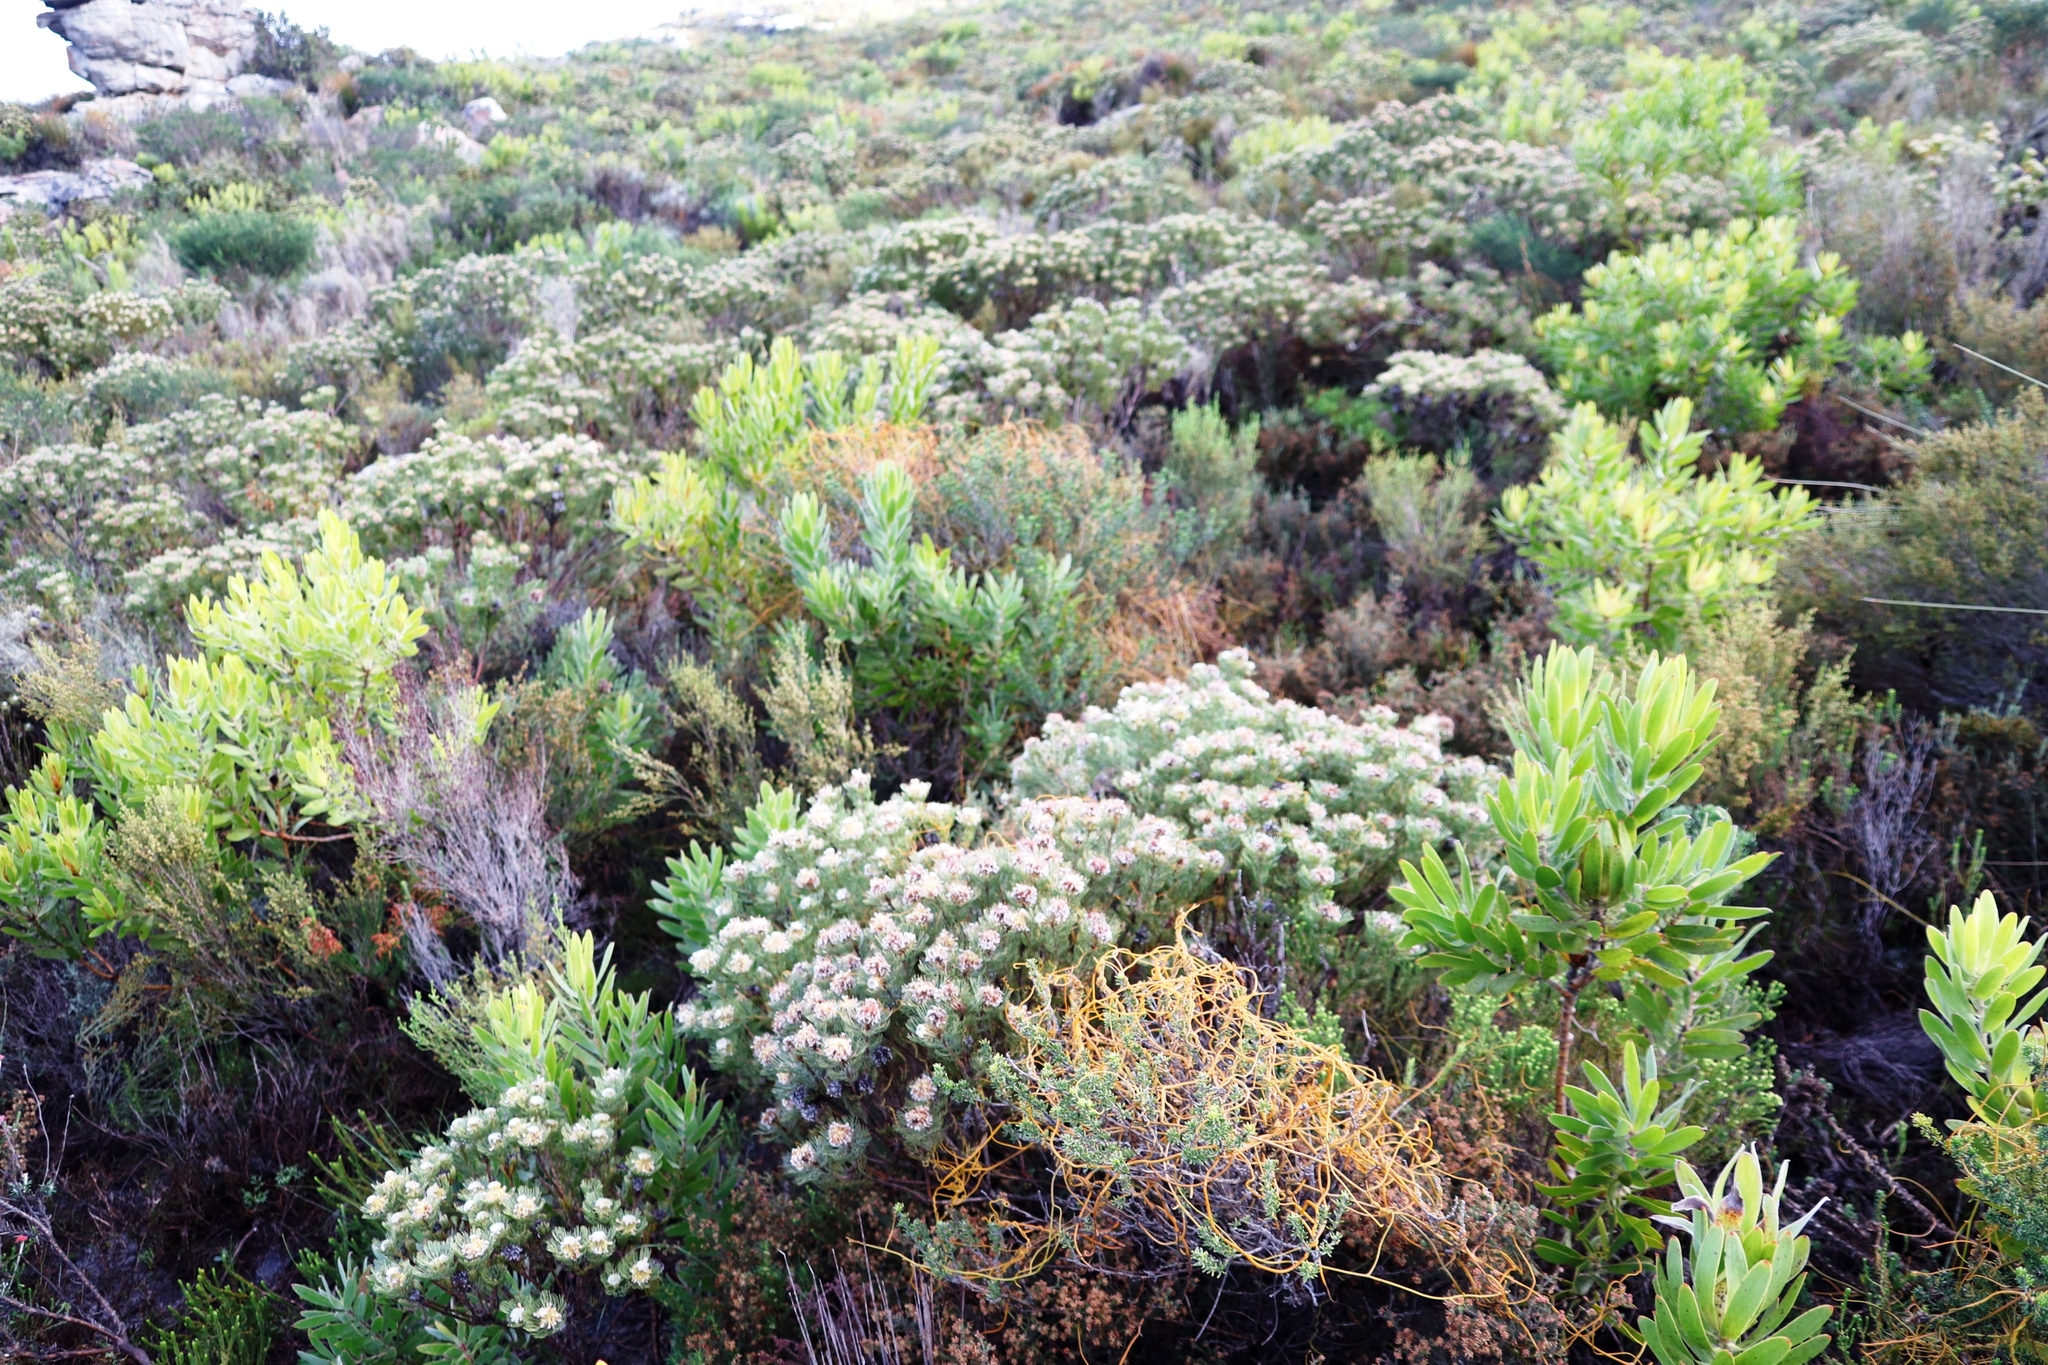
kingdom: Plantae
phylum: Tracheophyta
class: Magnoliopsida
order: Proteales
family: Proteaceae
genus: Serruria
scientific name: Serruria villosa
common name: Golden spiderhead
